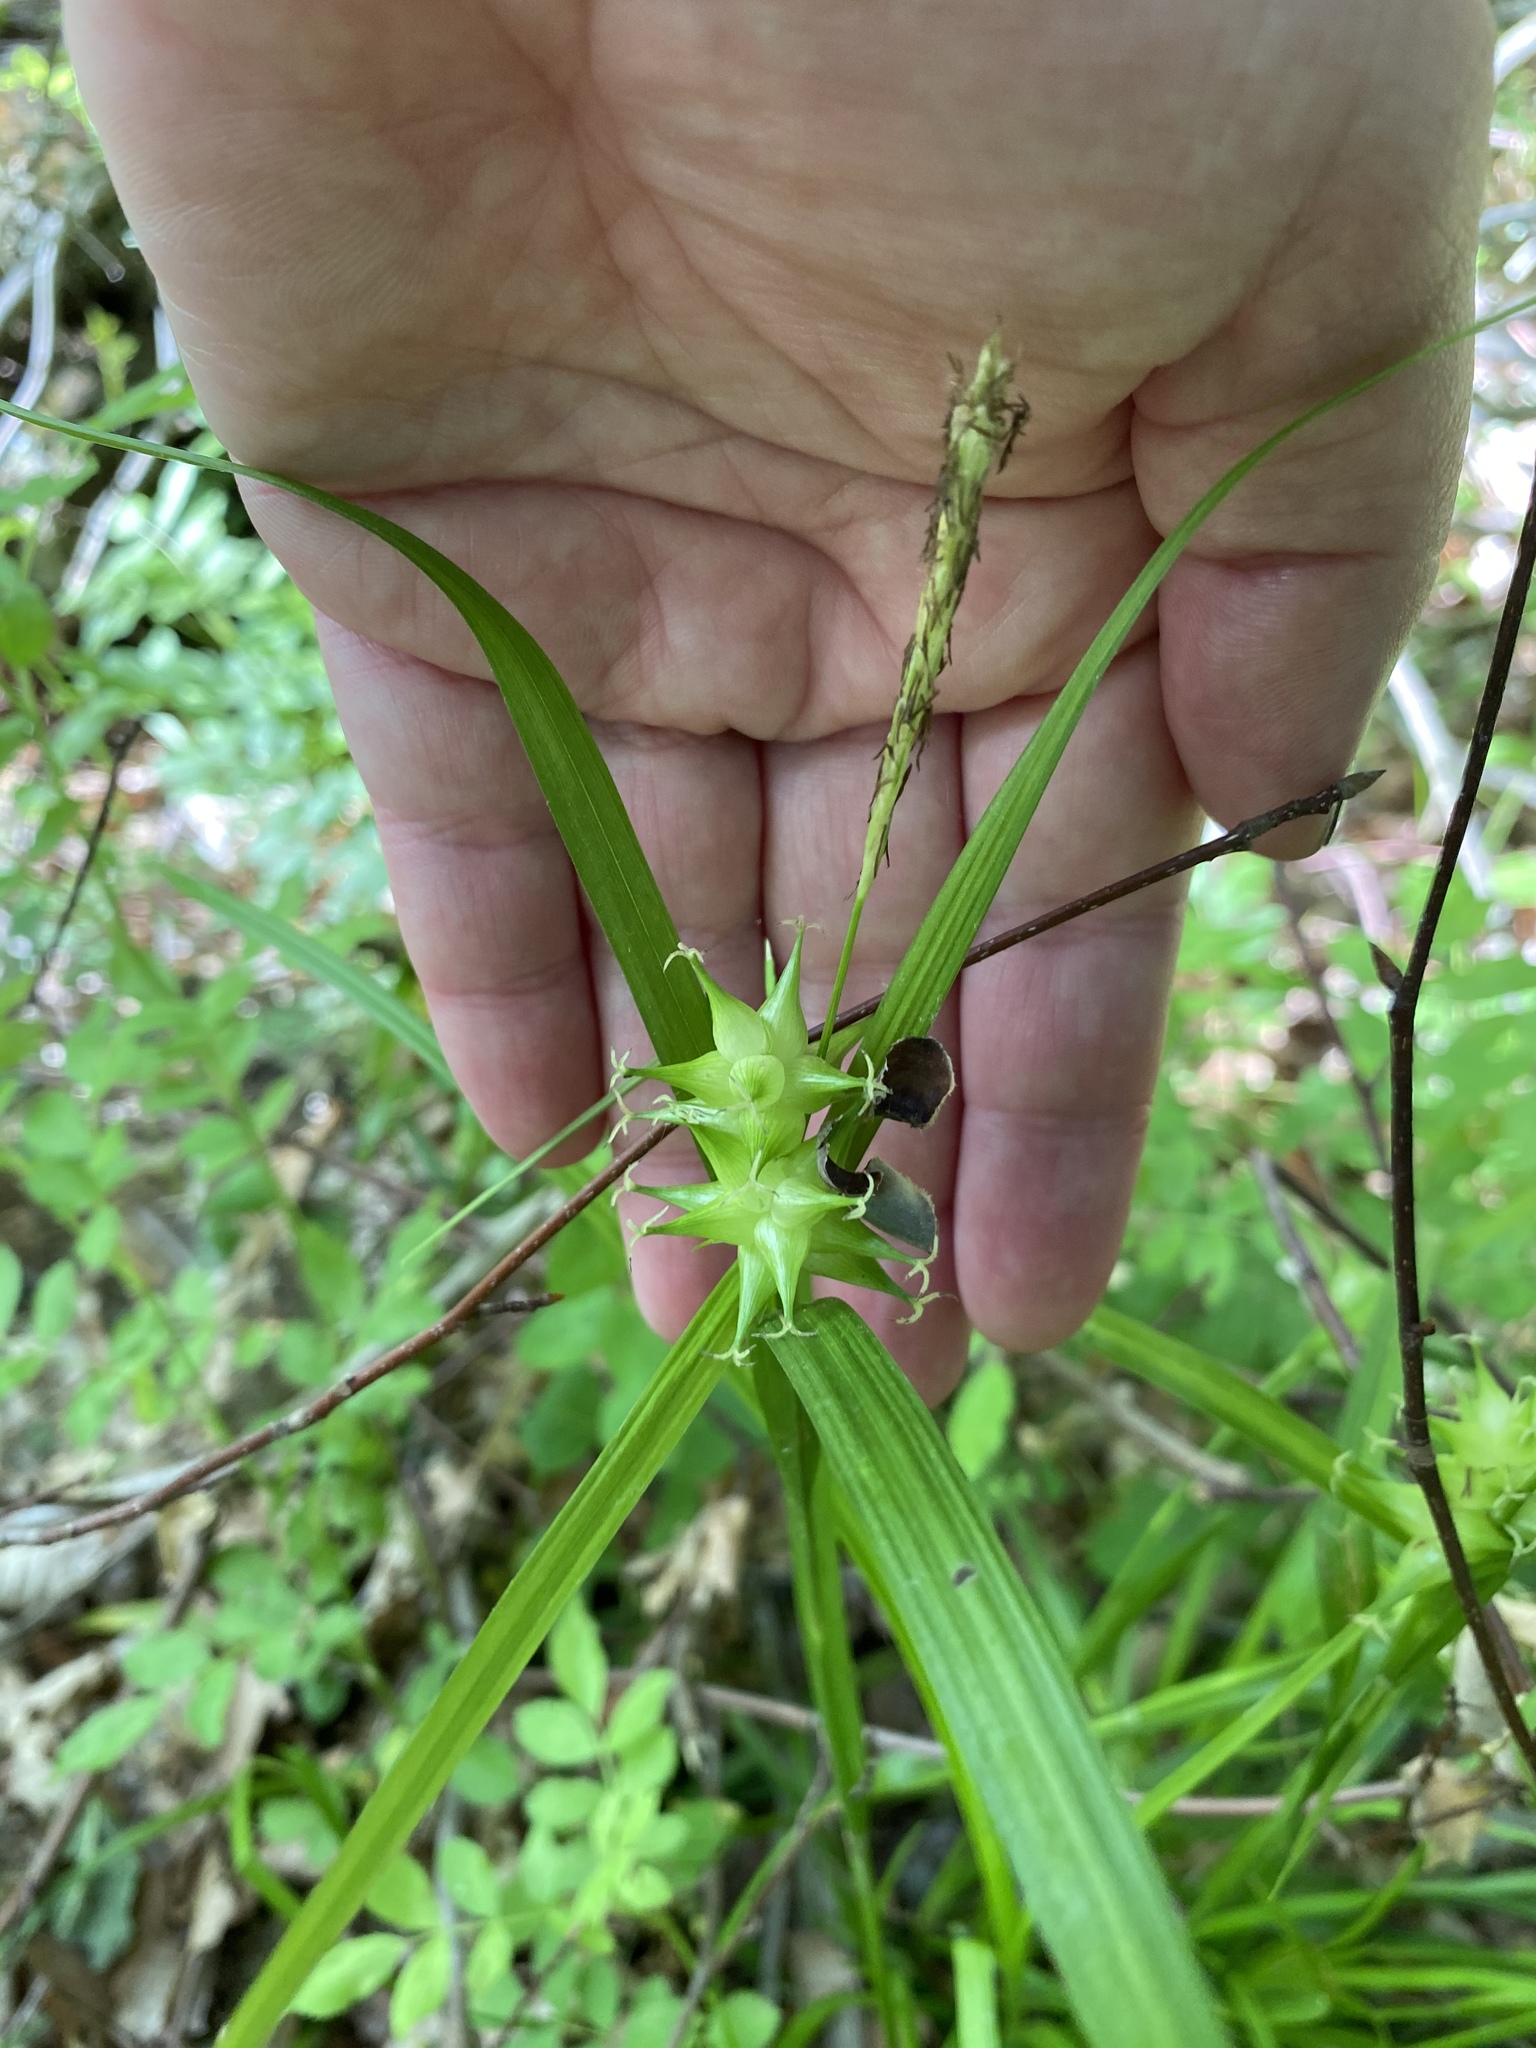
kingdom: Plantae
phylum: Tracheophyta
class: Liliopsida
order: Poales
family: Cyperaceae
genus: Carex
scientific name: Carex intumescens
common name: Greater bladder sedge
